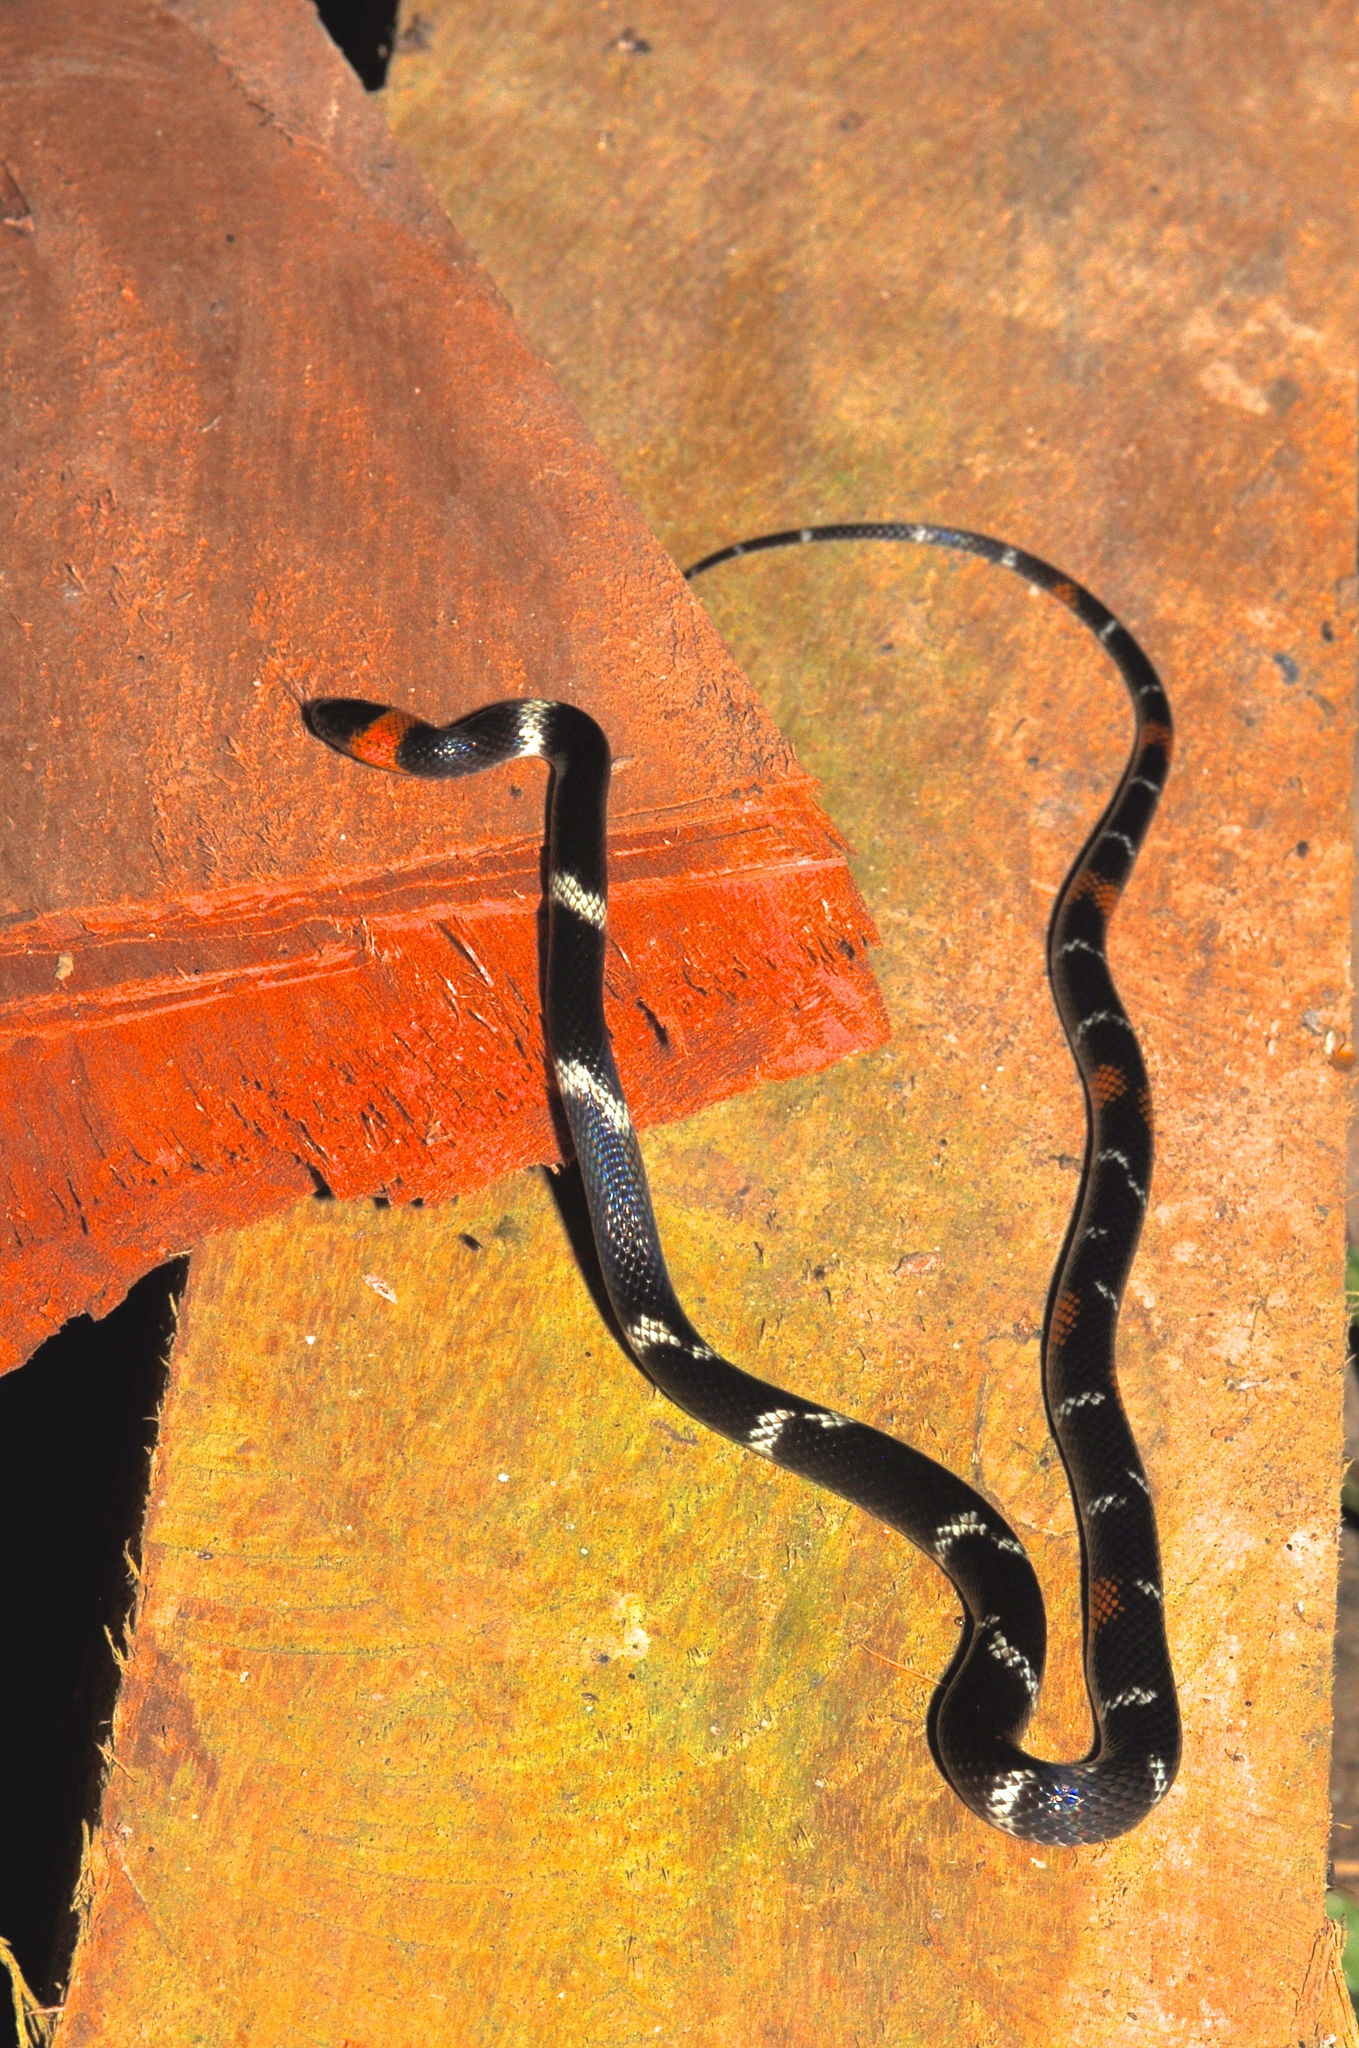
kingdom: Animalia
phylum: Chordata
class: Squamata
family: Colubridae
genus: Oxyrhopus
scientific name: Oxyrhopus vanidicus
